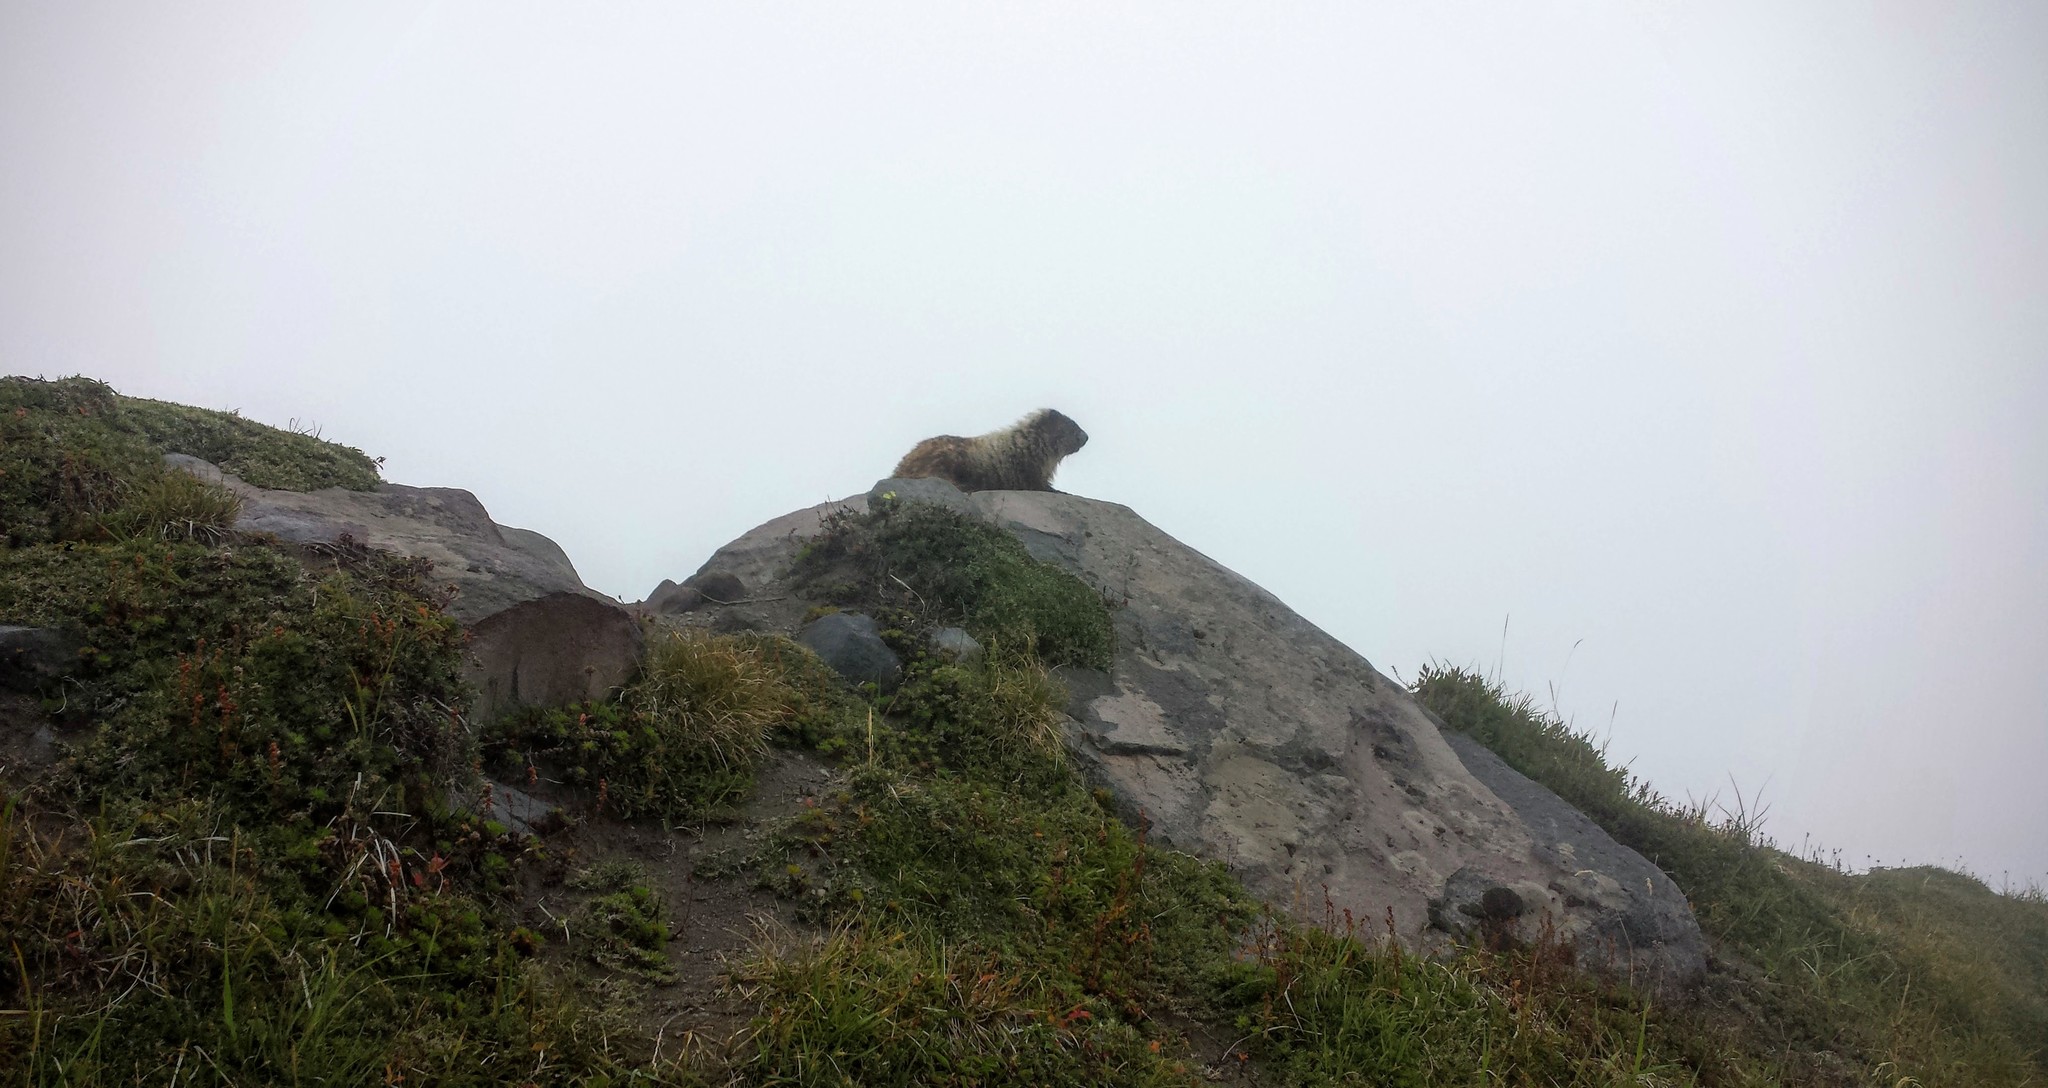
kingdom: Animalia
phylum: Chordata
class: Mammalia
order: Rodentia
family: Sciuridae
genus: Marmota
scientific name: Marmota caligata
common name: Hoary marmot
